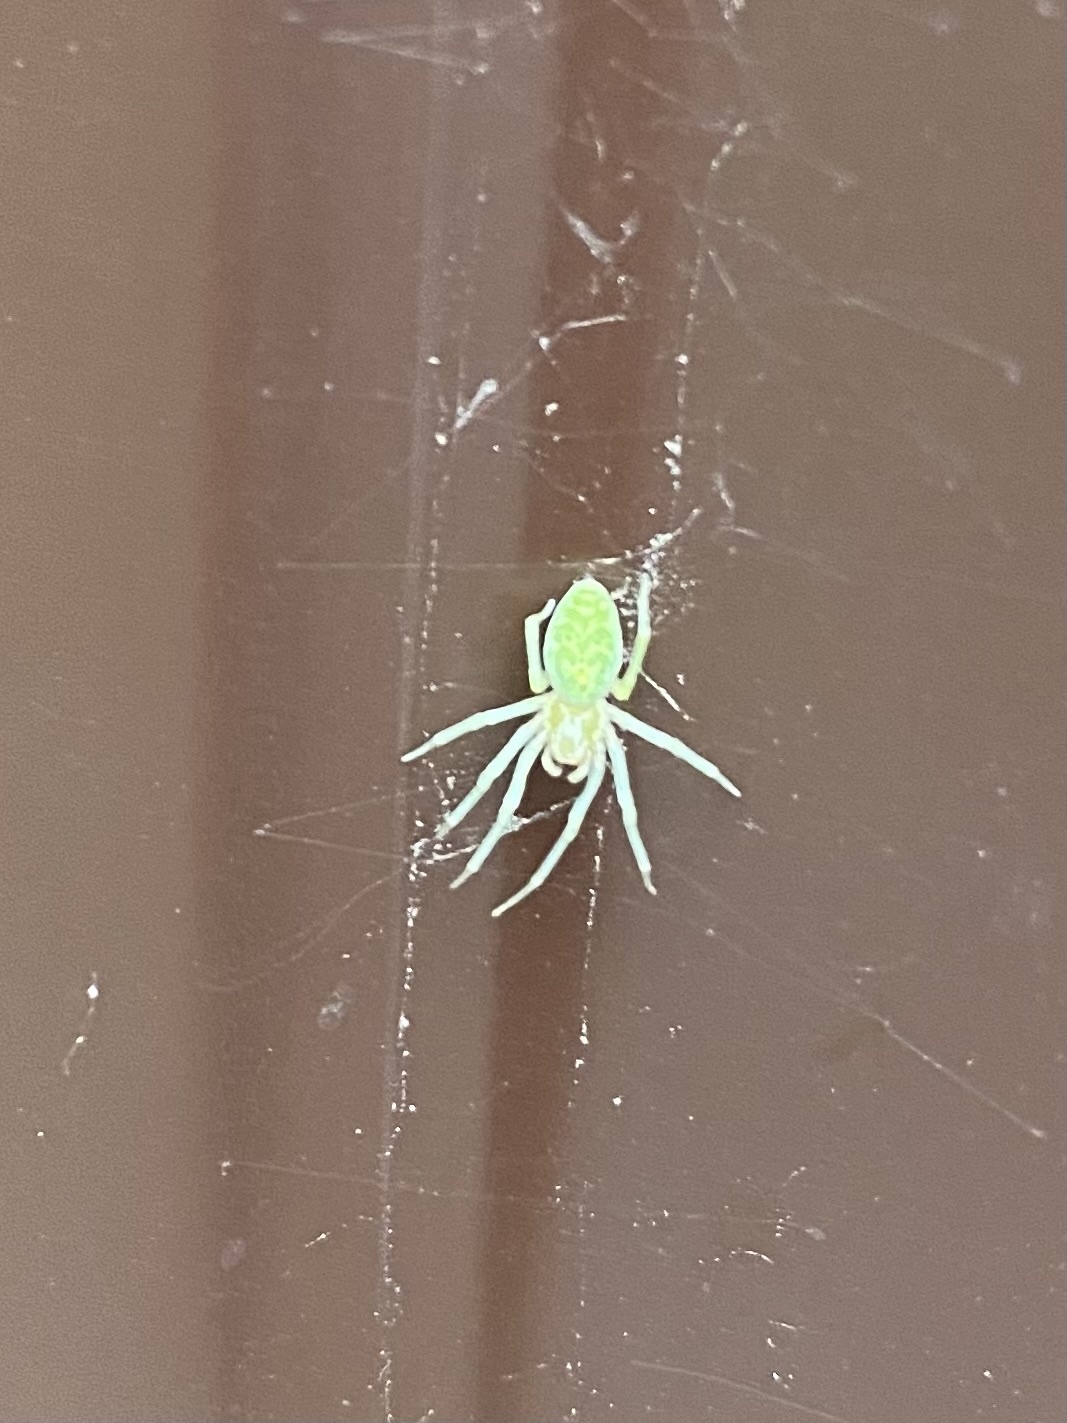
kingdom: Animalia
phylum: Arthropoda
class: Arachnida
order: Araneae
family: Dictynidae
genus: Nigma
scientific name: Nigma walckenaeri
